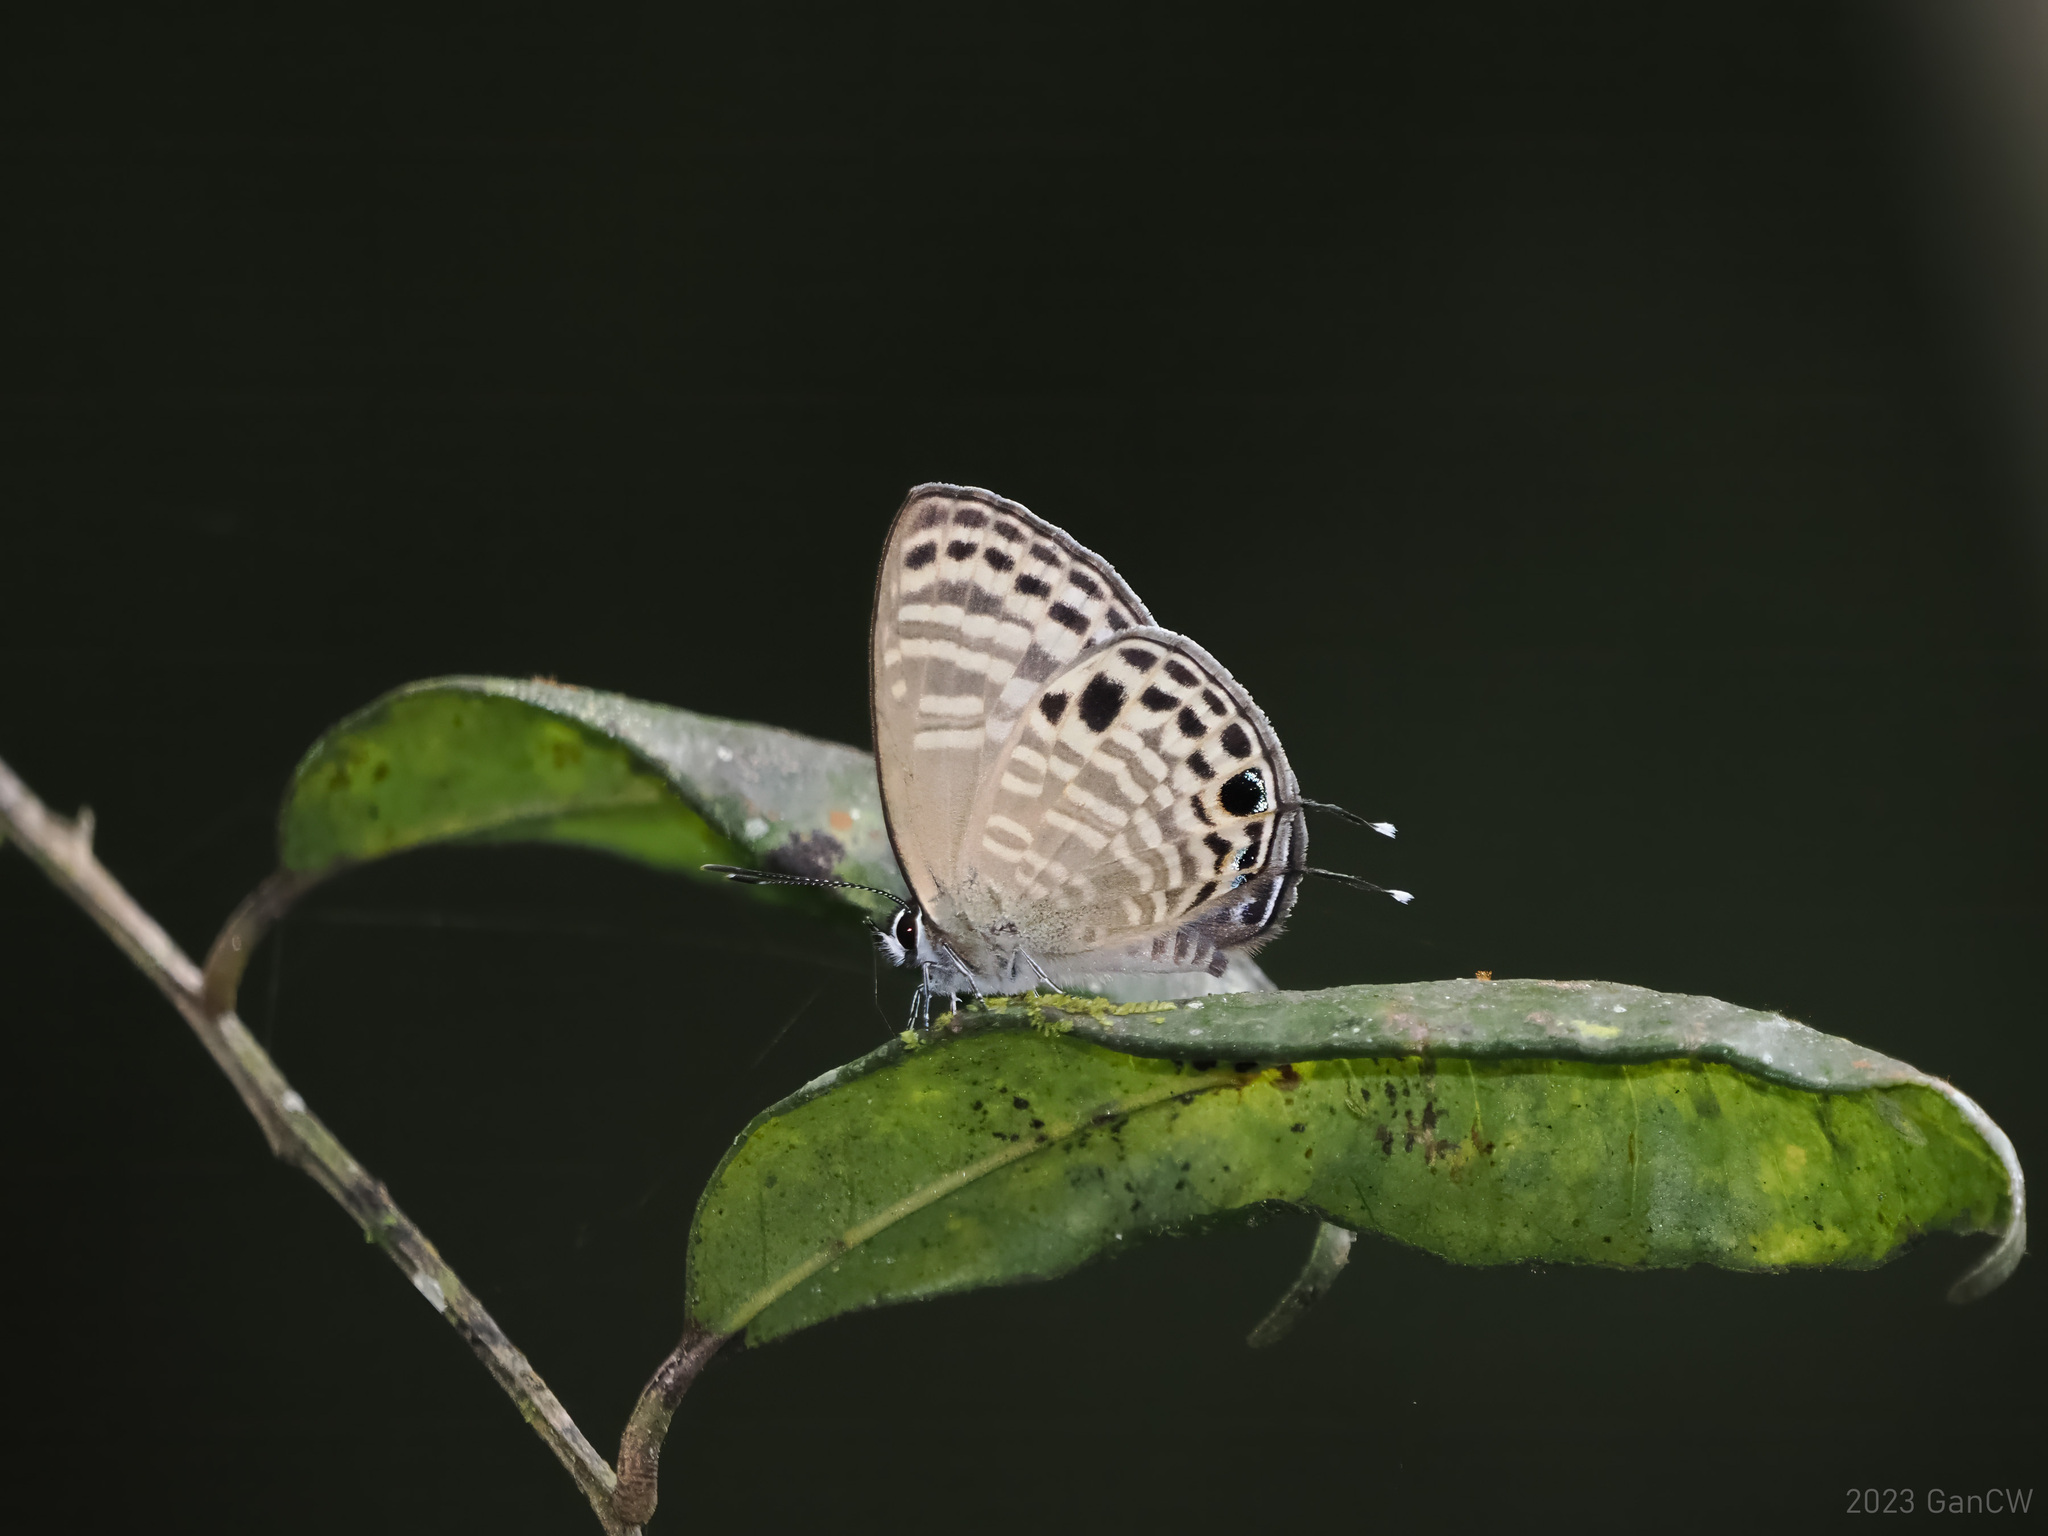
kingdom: Animalia
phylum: Arthropoda
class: Insecta
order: Lepidoptera
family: Lycaenidae
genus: Nacaduba
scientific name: Nacaduba angusta
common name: White four-line blue
